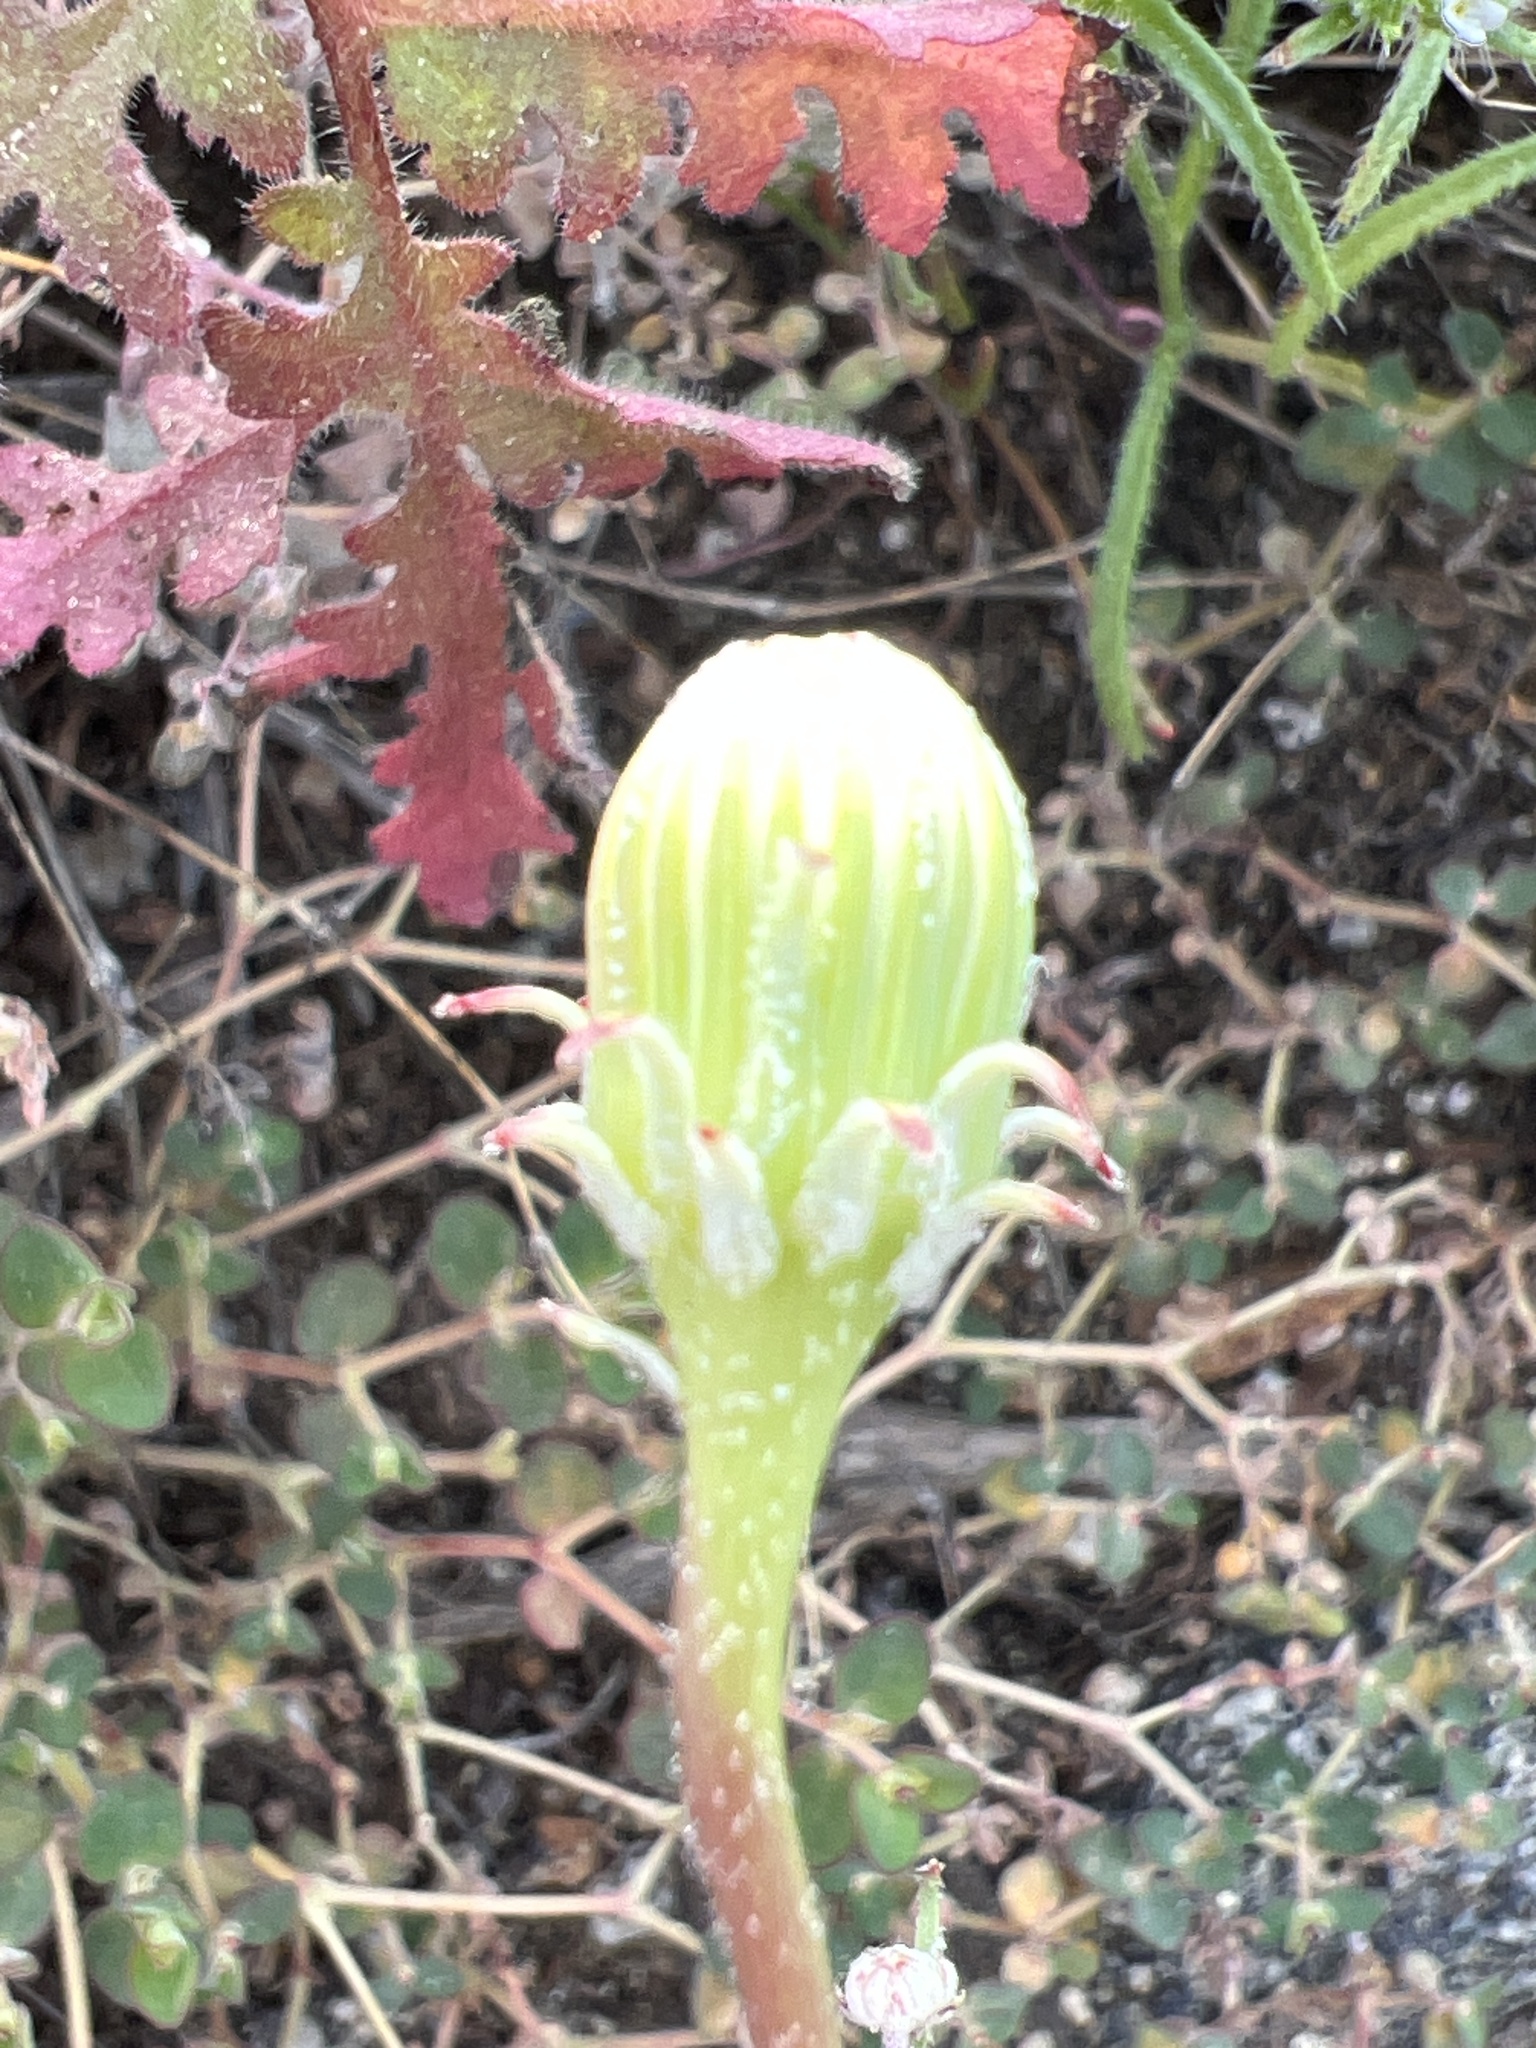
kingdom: Plantae
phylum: Tracheophyta
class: Magnoliopsida
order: Asterales
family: Asteraceae
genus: Malacothrix
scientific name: Malacothrix glabrata
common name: Smooth desert-dandelion
